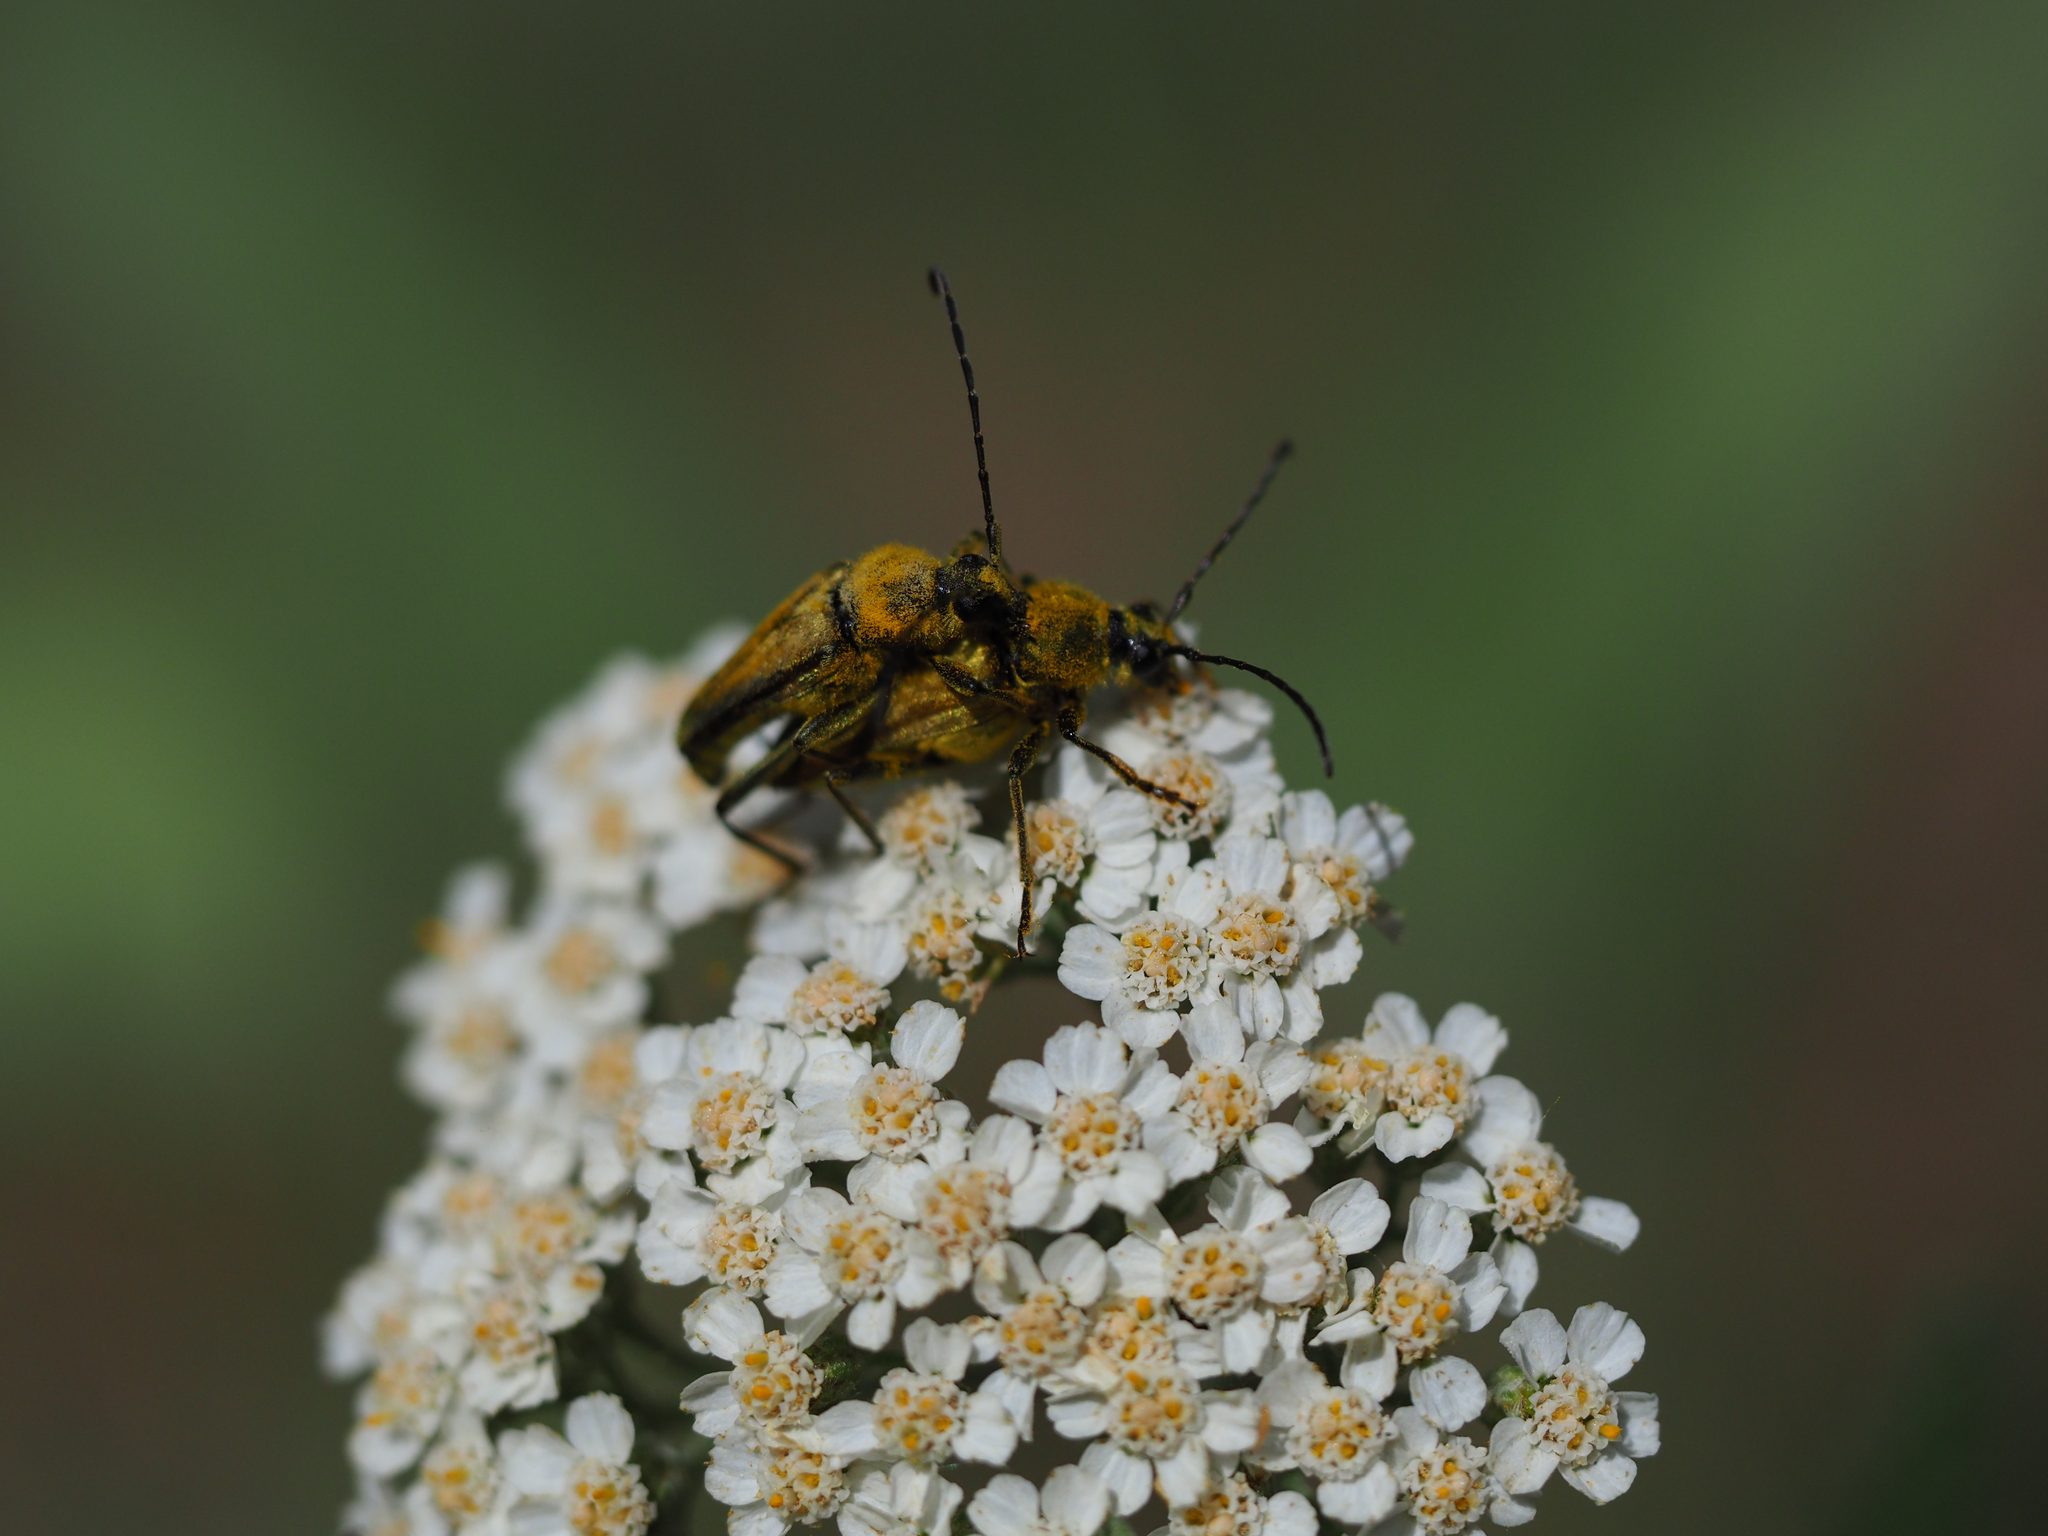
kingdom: Animalia
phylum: Arthropoda
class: Insecta
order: Coleoptera
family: Cerambycidae
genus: Cosmosalia
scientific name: Cosmosalia chrysocoma
